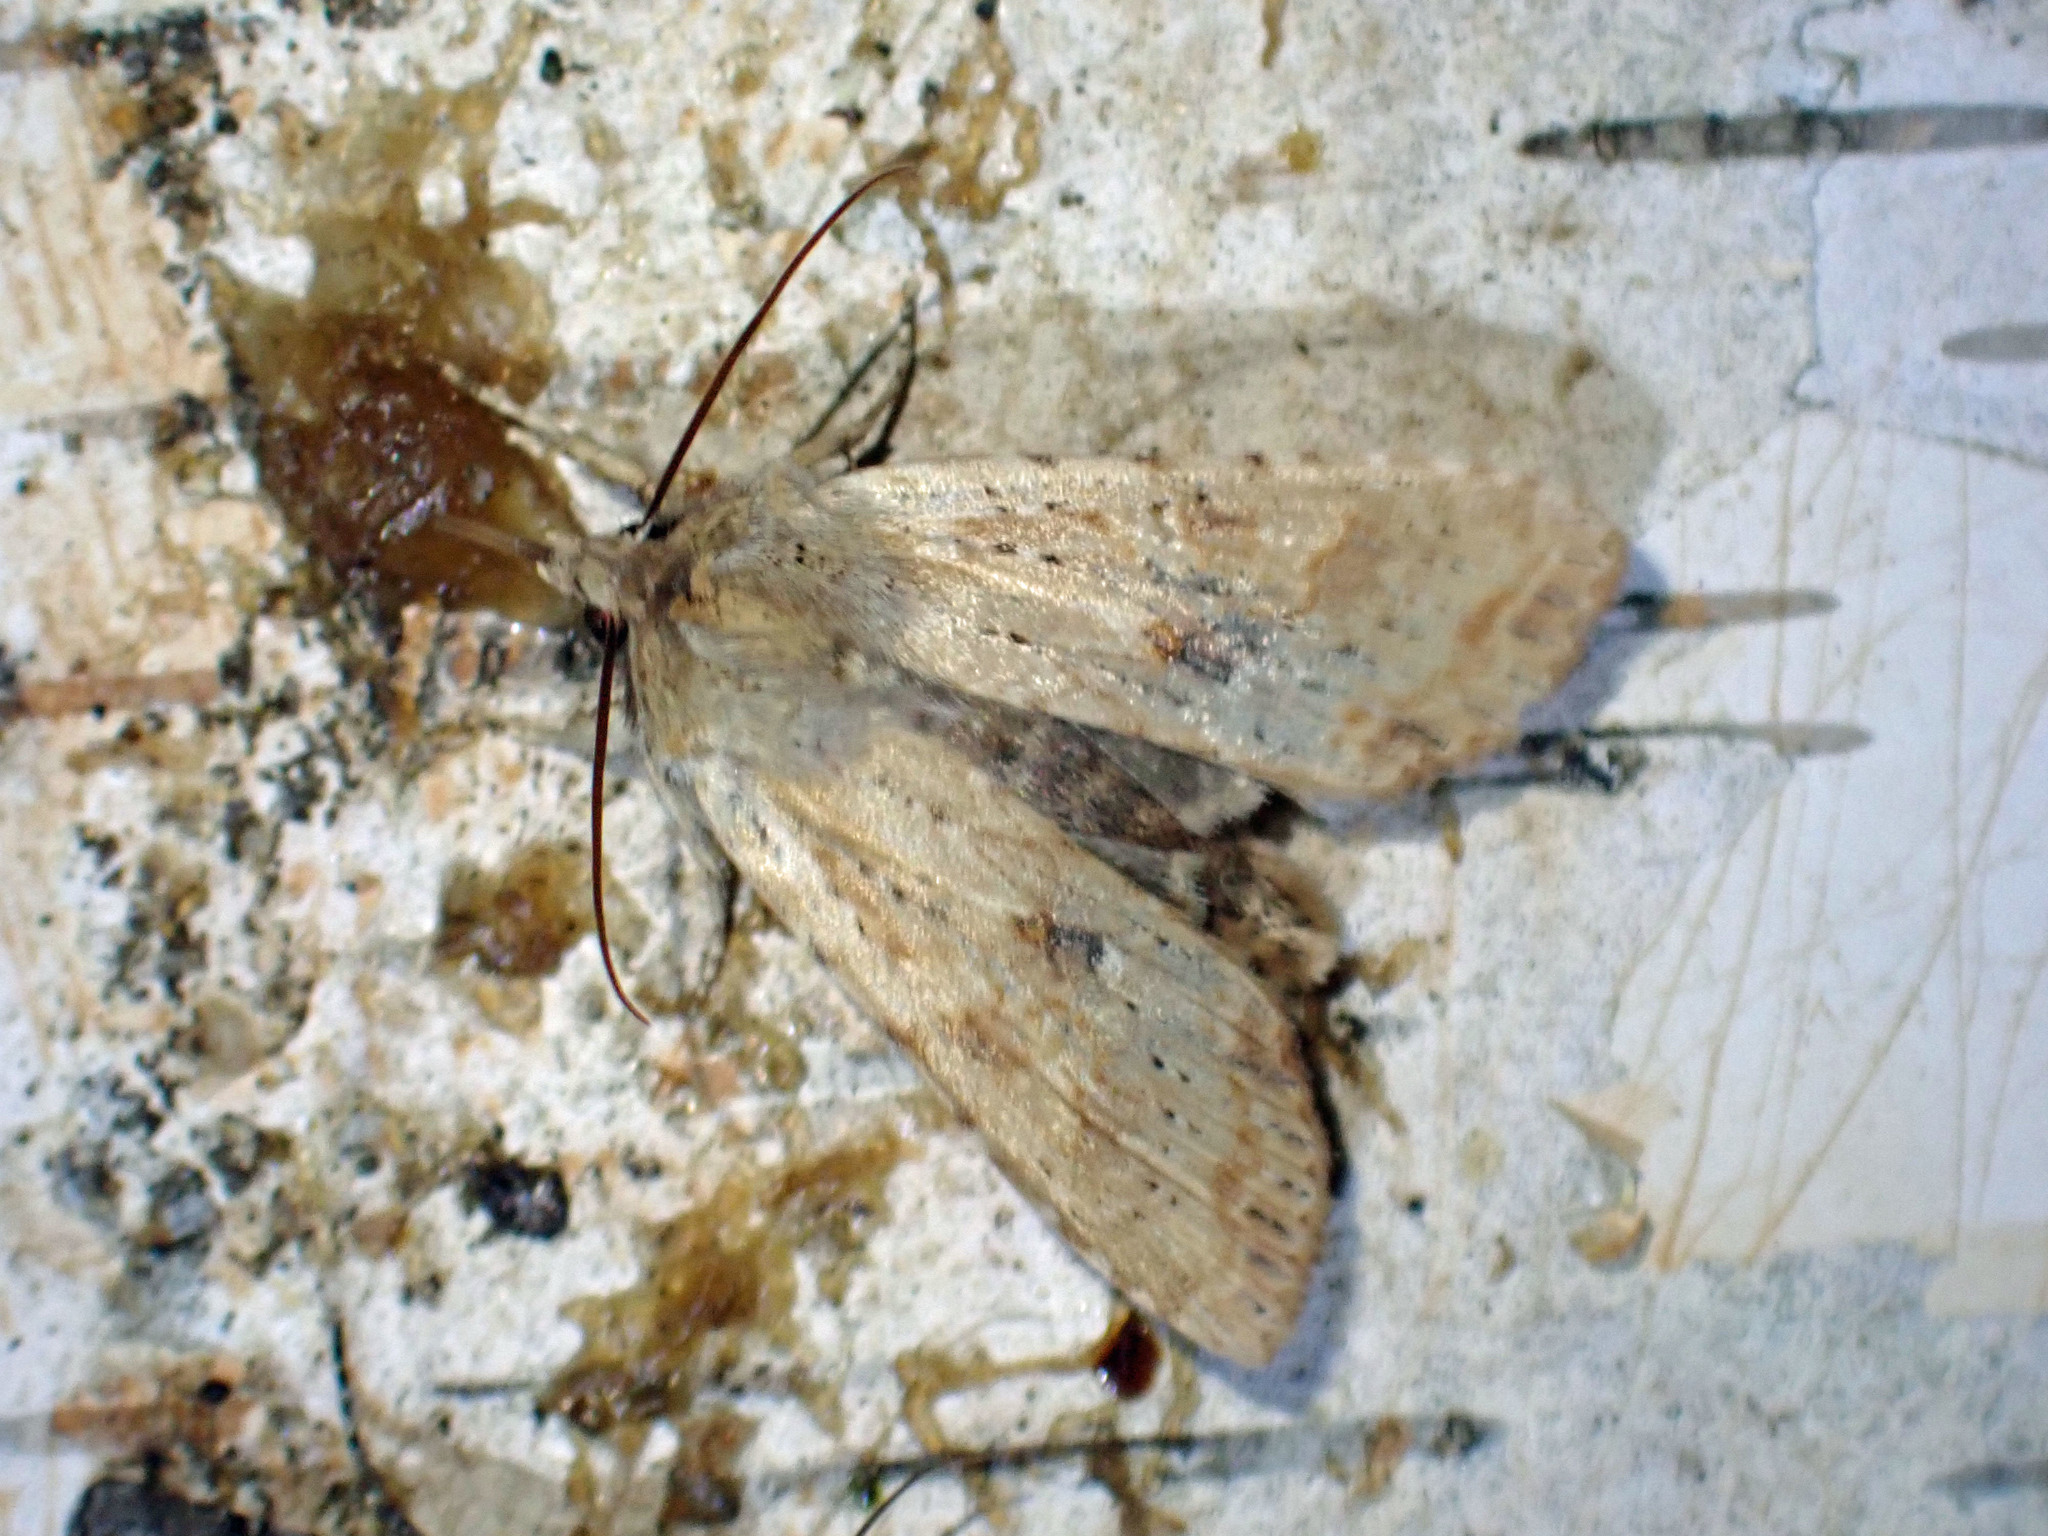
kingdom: Animalia
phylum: Arthropoda
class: Insecta
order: Lepidoptera
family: Noctuidae
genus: Lithophane
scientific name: Lithophane innominata
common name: Nameless pinion moth
